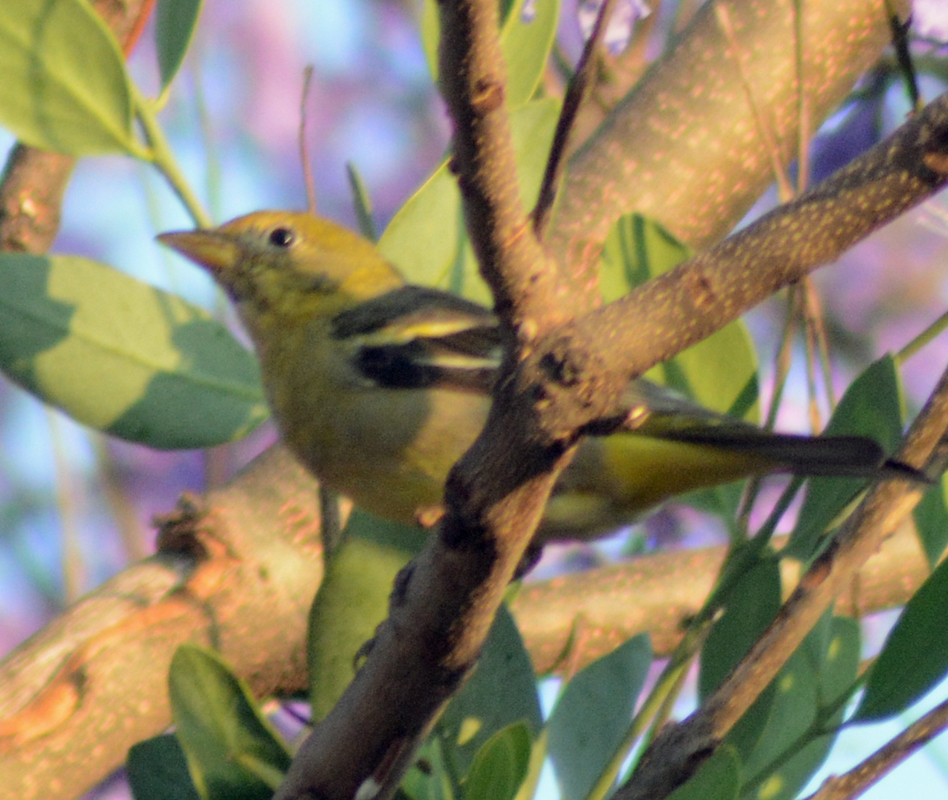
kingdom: Animalia
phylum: Chordata
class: Aves
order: Passeriformes
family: Cardinalidae
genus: Piranga
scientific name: Piranga ludoviciana
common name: Western tanager
